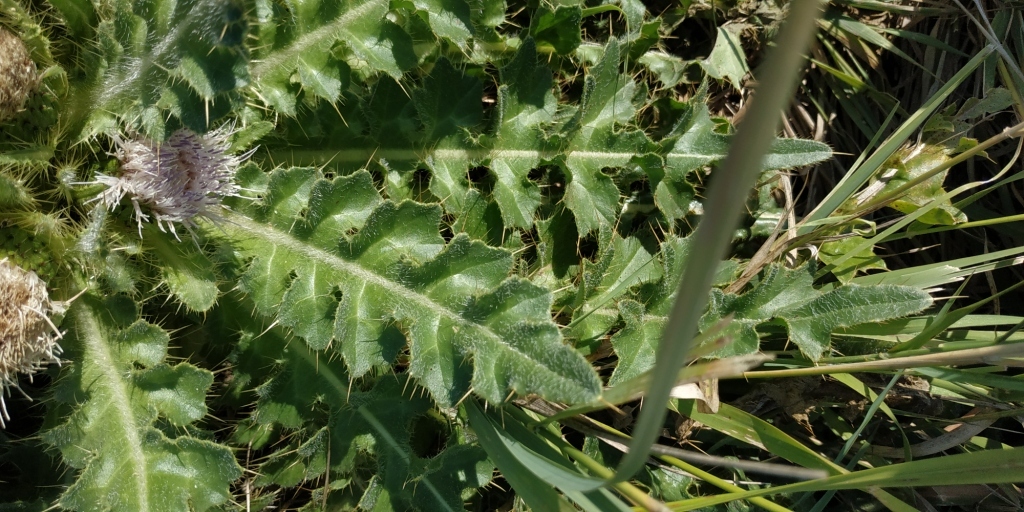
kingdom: Plantae
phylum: Tracheophyta
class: Magnoliopsida
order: Asterales
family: Asteraceae
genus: Cirsium
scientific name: Cirsium esculentum
